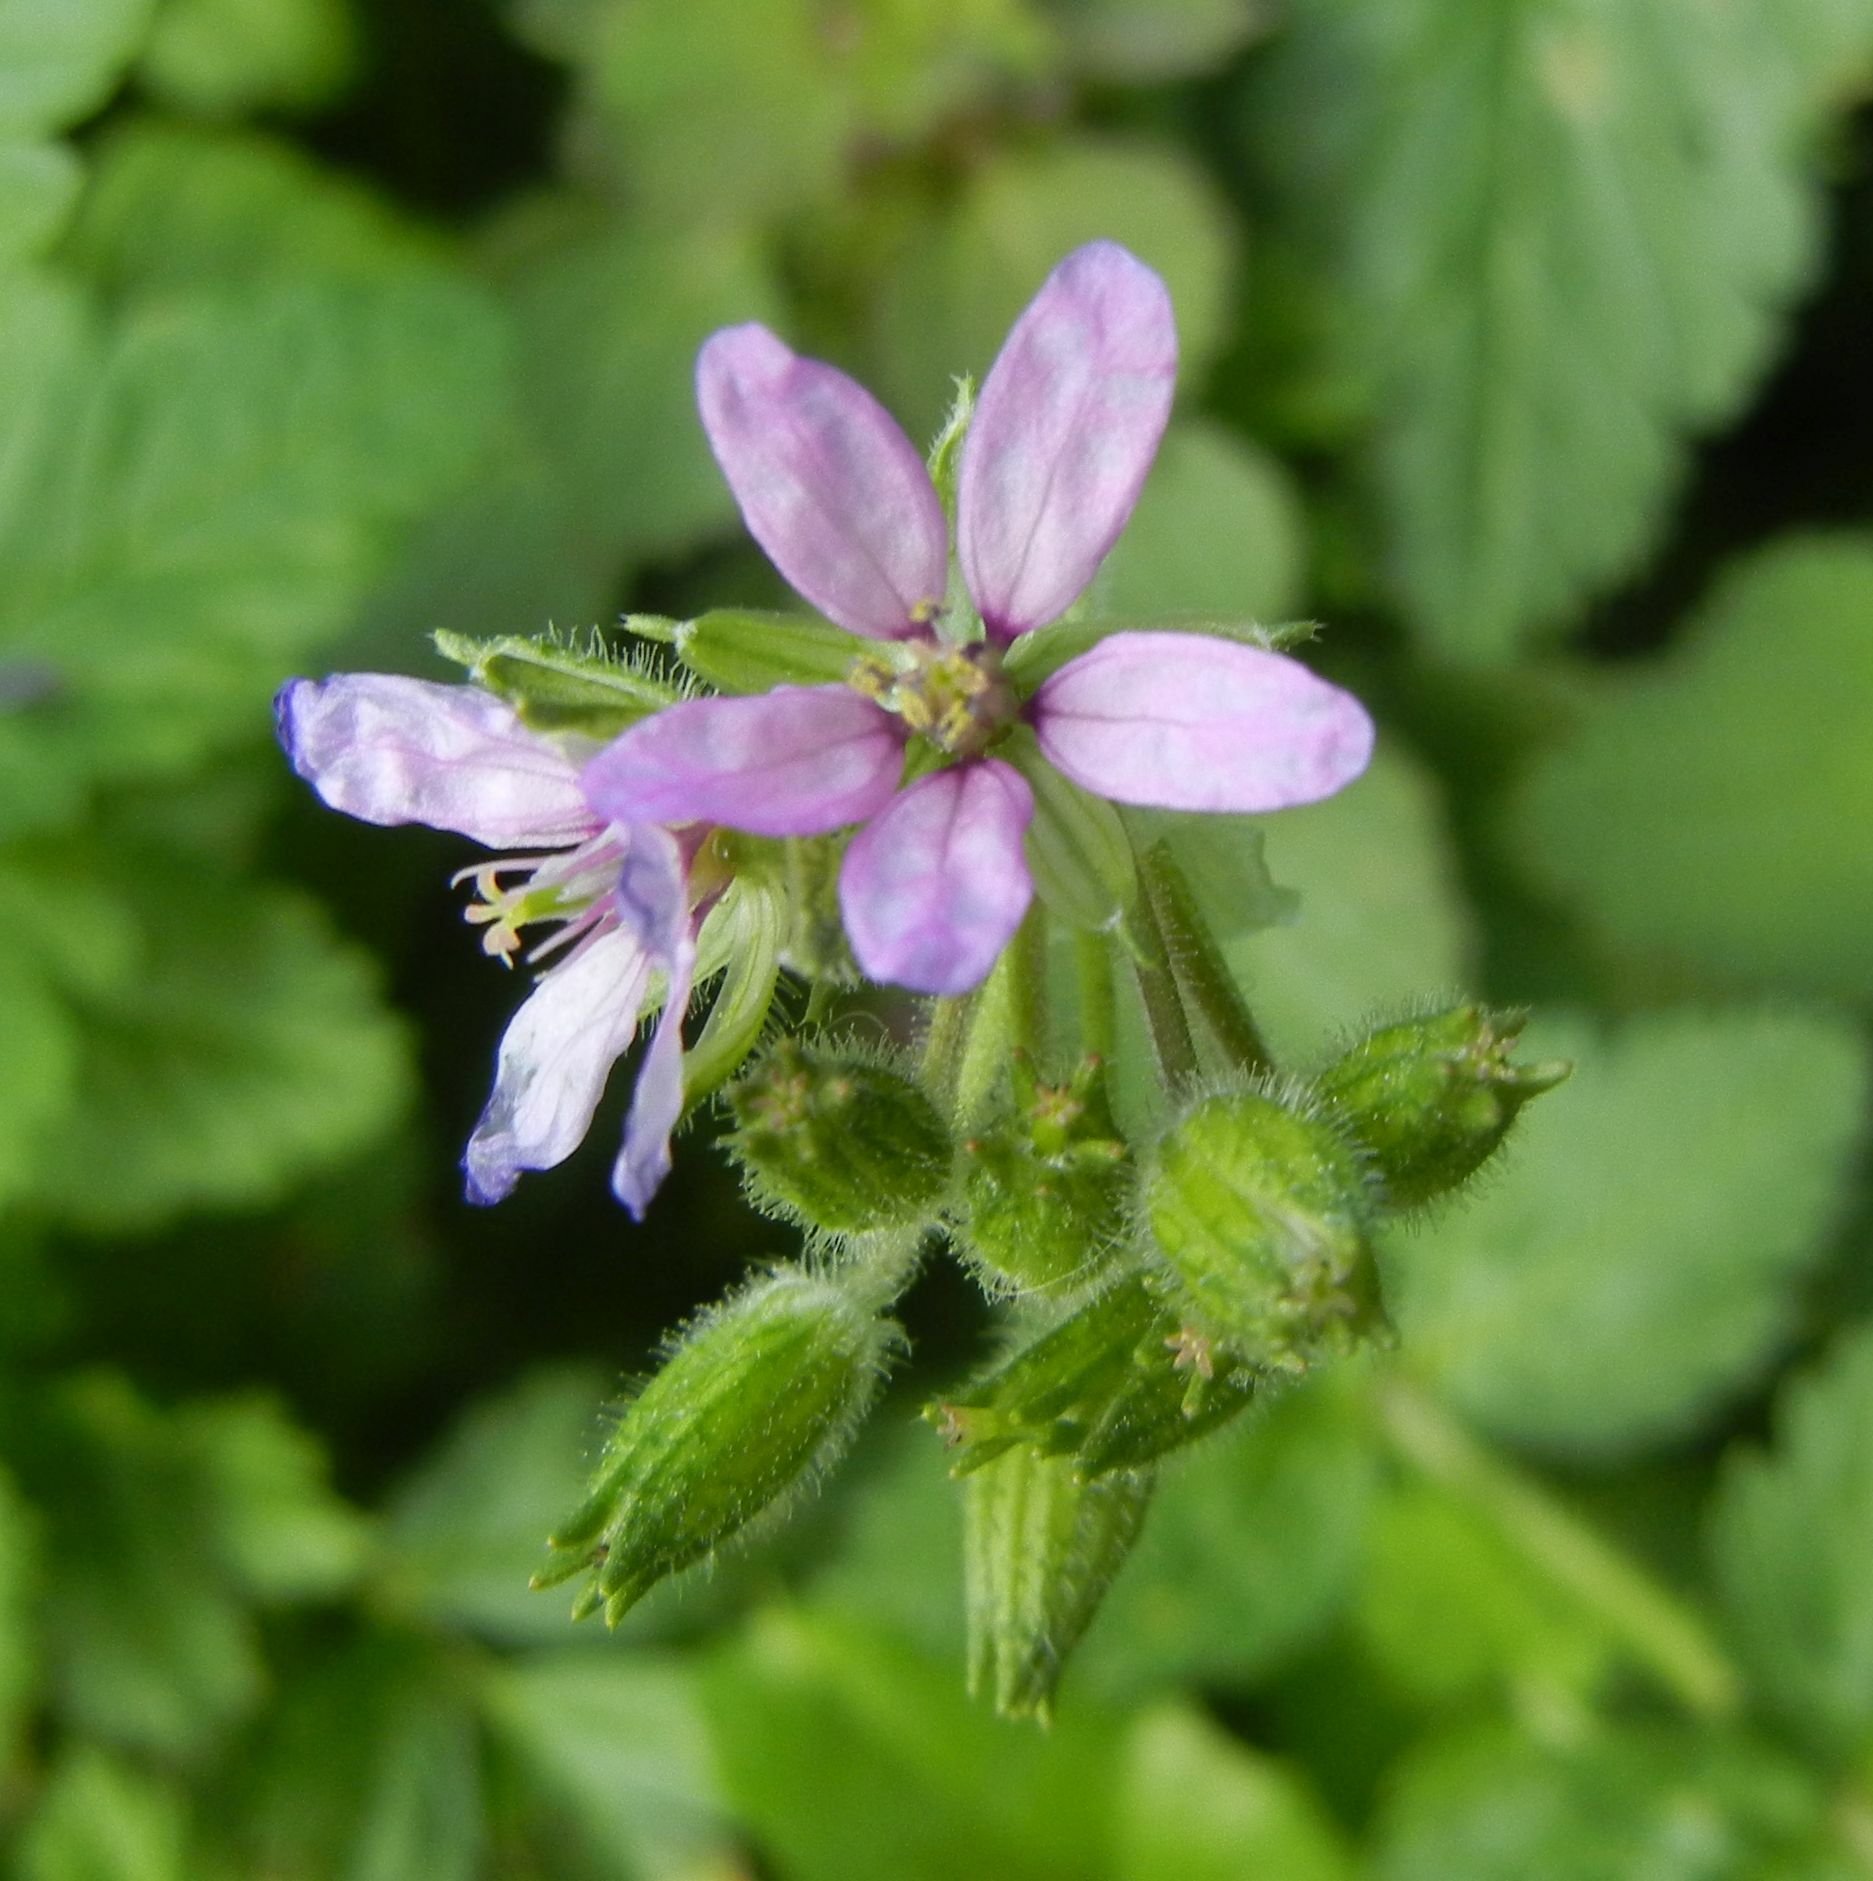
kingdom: Plantae
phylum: Tracheophyta
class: Magnoliopsida
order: Geraniales
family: Geraniaceae
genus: Erodium
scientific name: Erodium moschatum
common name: Musk stork's-bill
